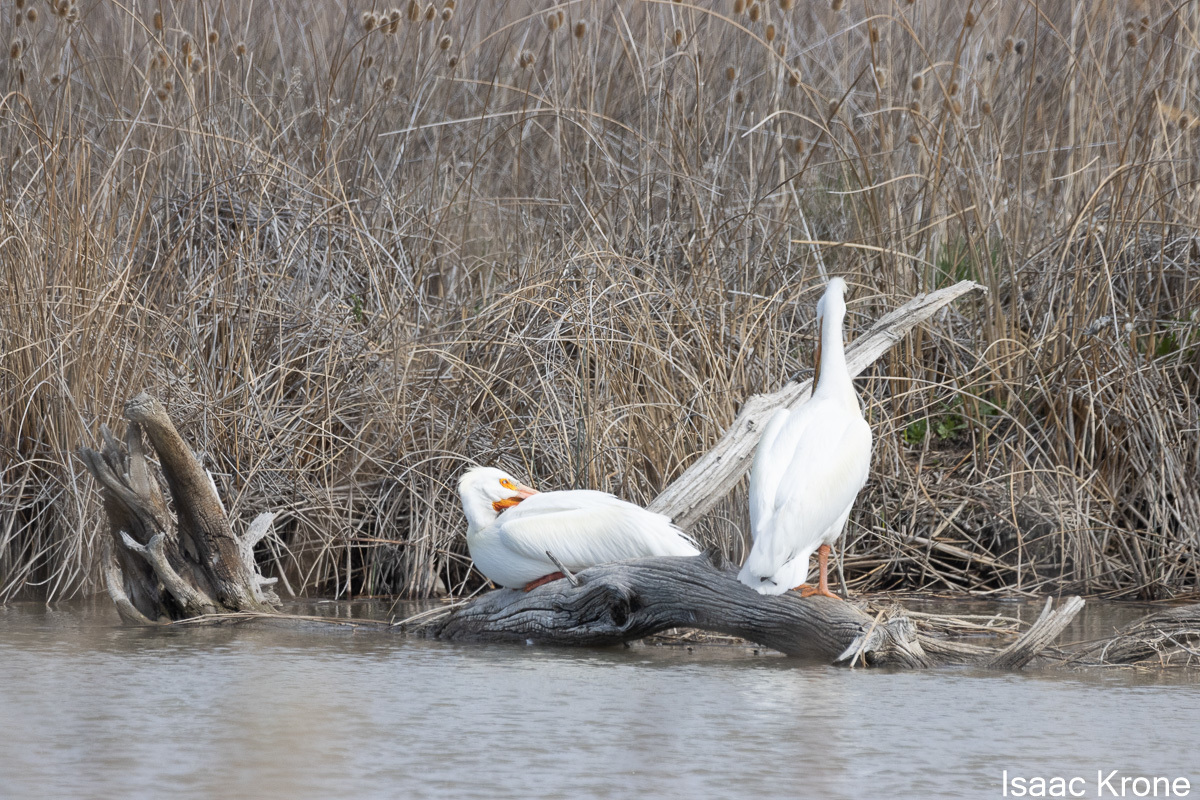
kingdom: Animalia
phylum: Chordata
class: Aves
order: Pelecaniformes
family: Pelecanidae
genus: Pelecanus
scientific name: Pelecanus erythrorhynchos
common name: American white pelican
